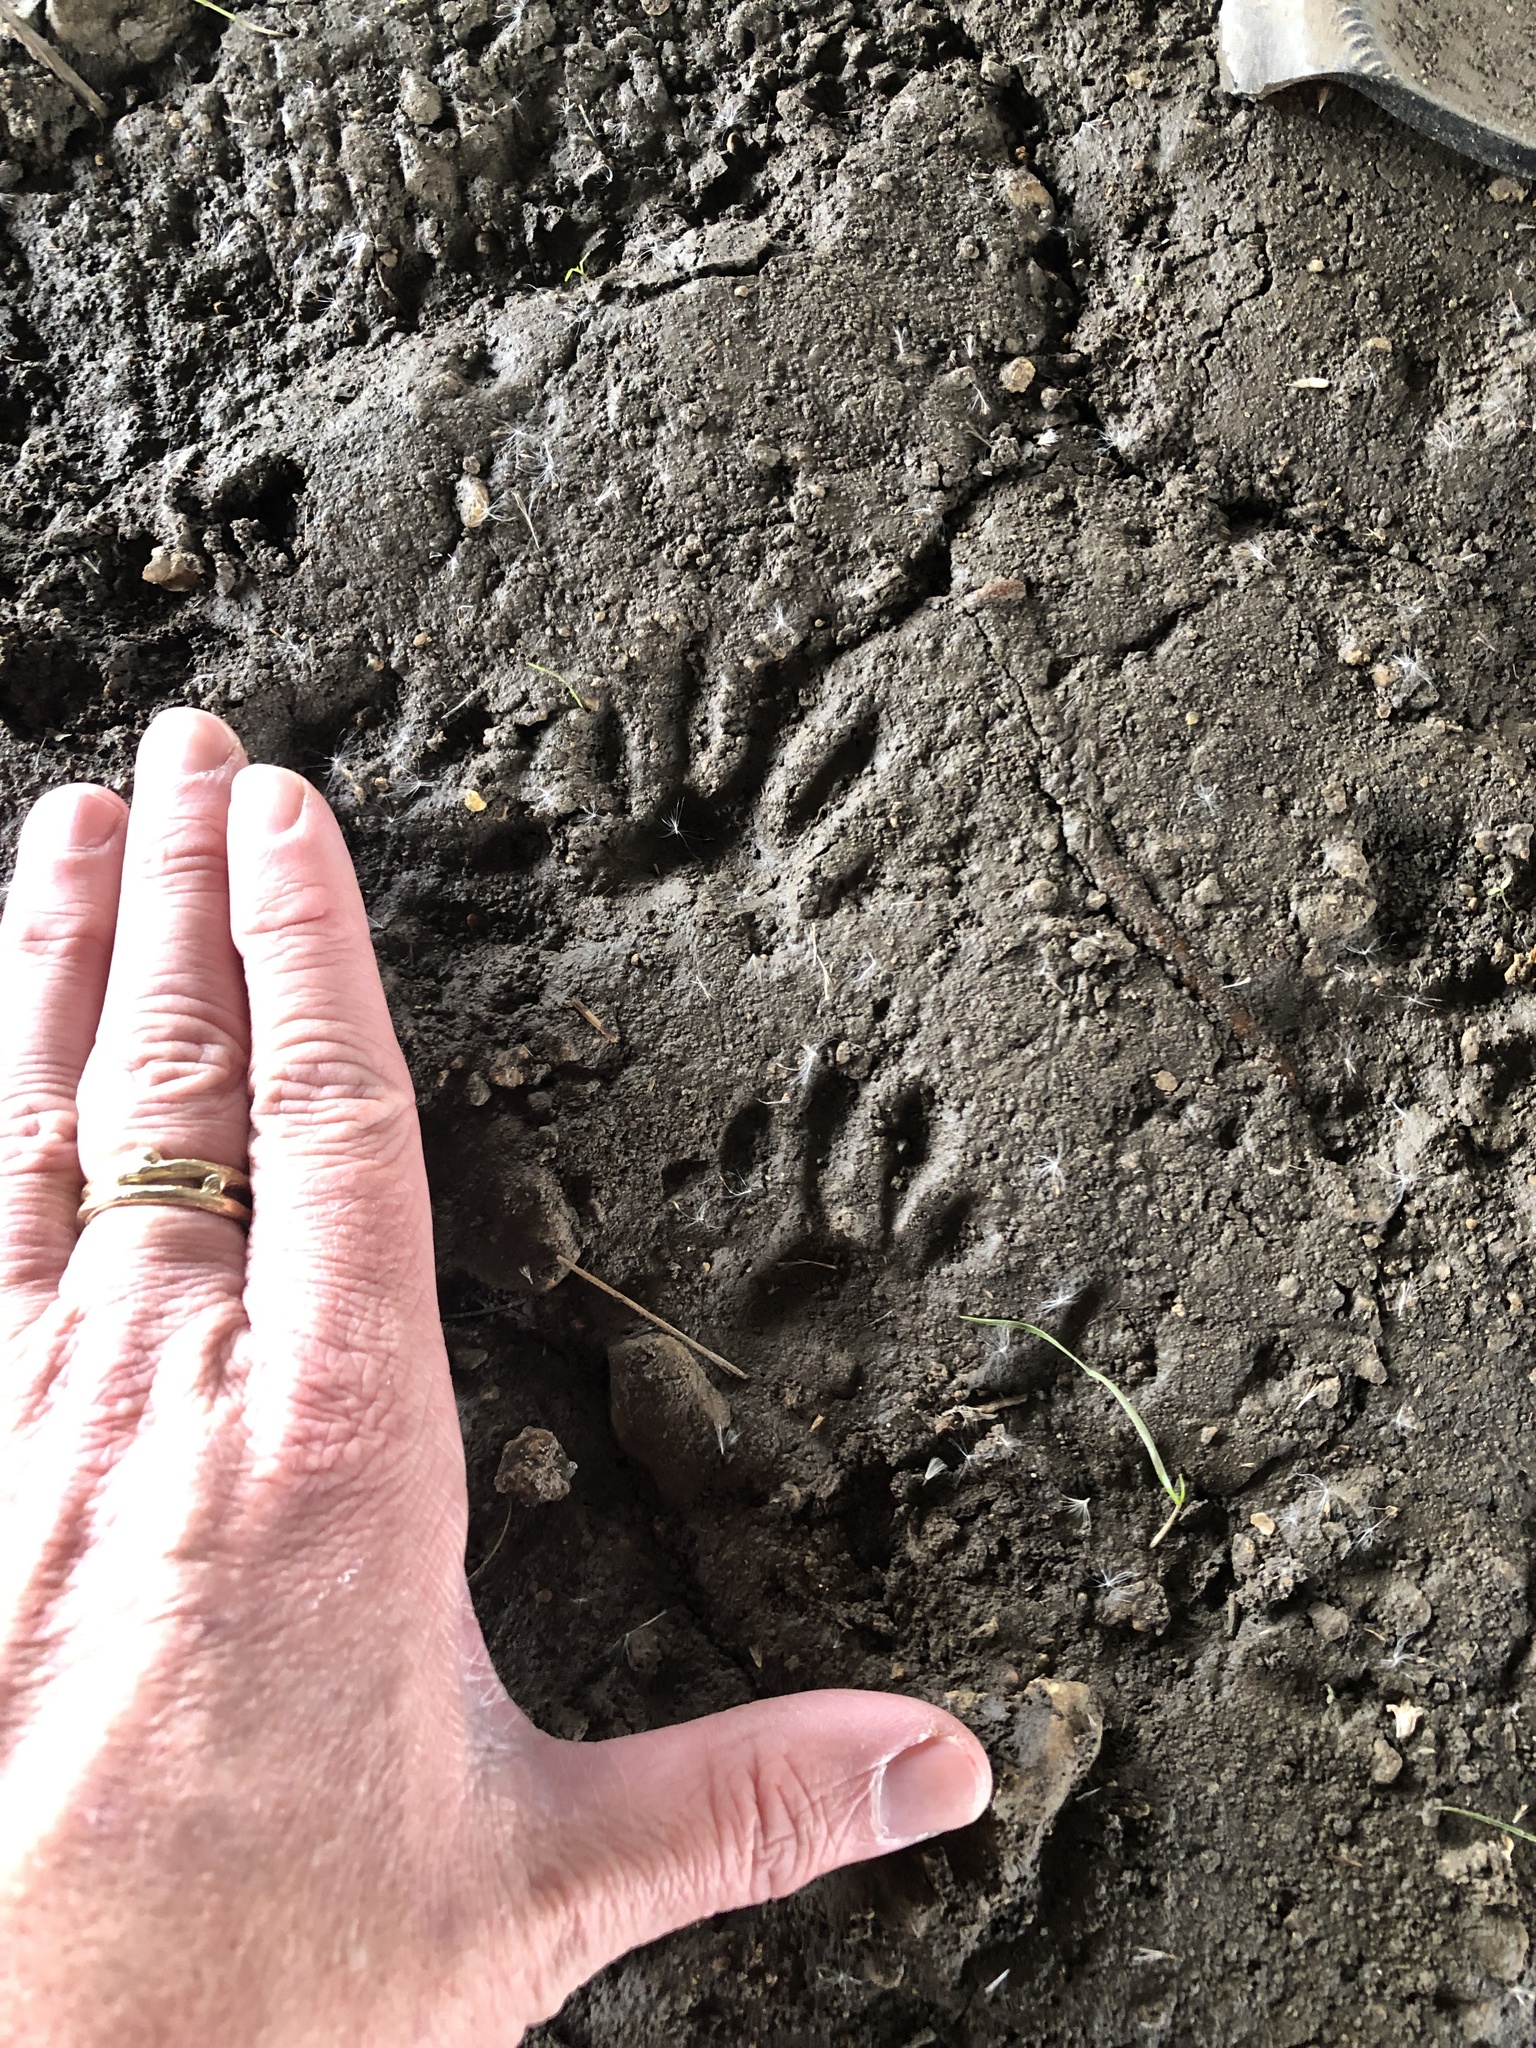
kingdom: Animalia
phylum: Chordata
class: Mammalia
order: Carnivora
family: Procyonidae
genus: Procyon
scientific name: Procyon lotor
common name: Raccoon
